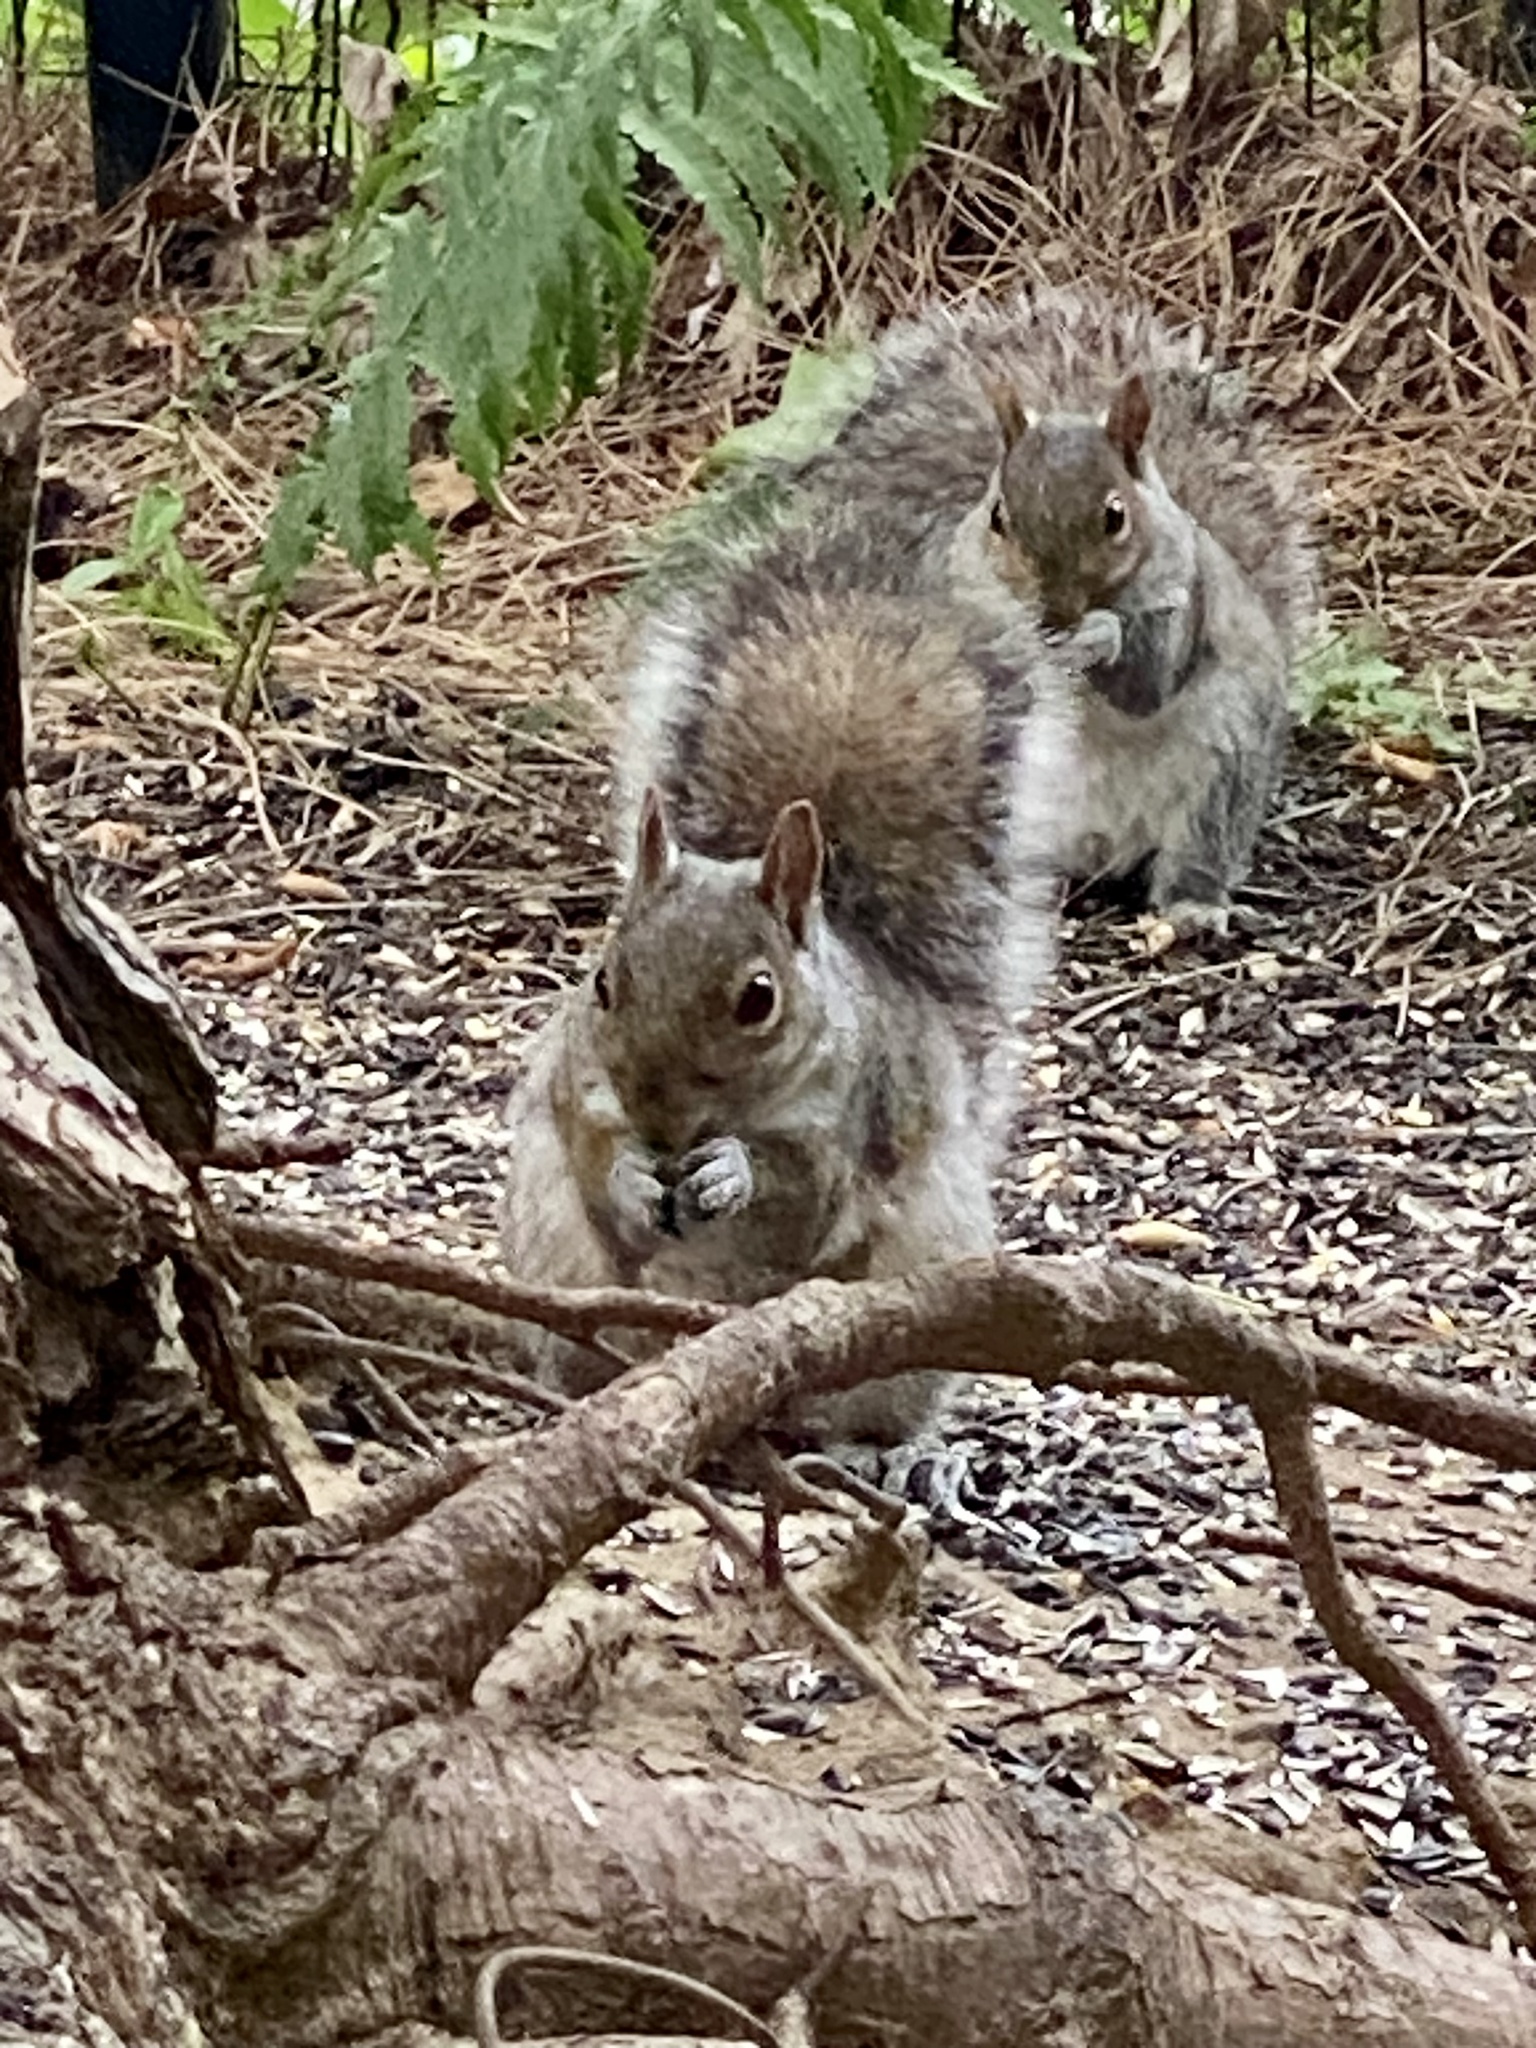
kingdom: Animalia
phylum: Chordata
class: Mammalia
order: Rodentia
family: Sciuridae
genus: Sciurus
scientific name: Sciurus carolinensis
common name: Eastern gray squirrel
